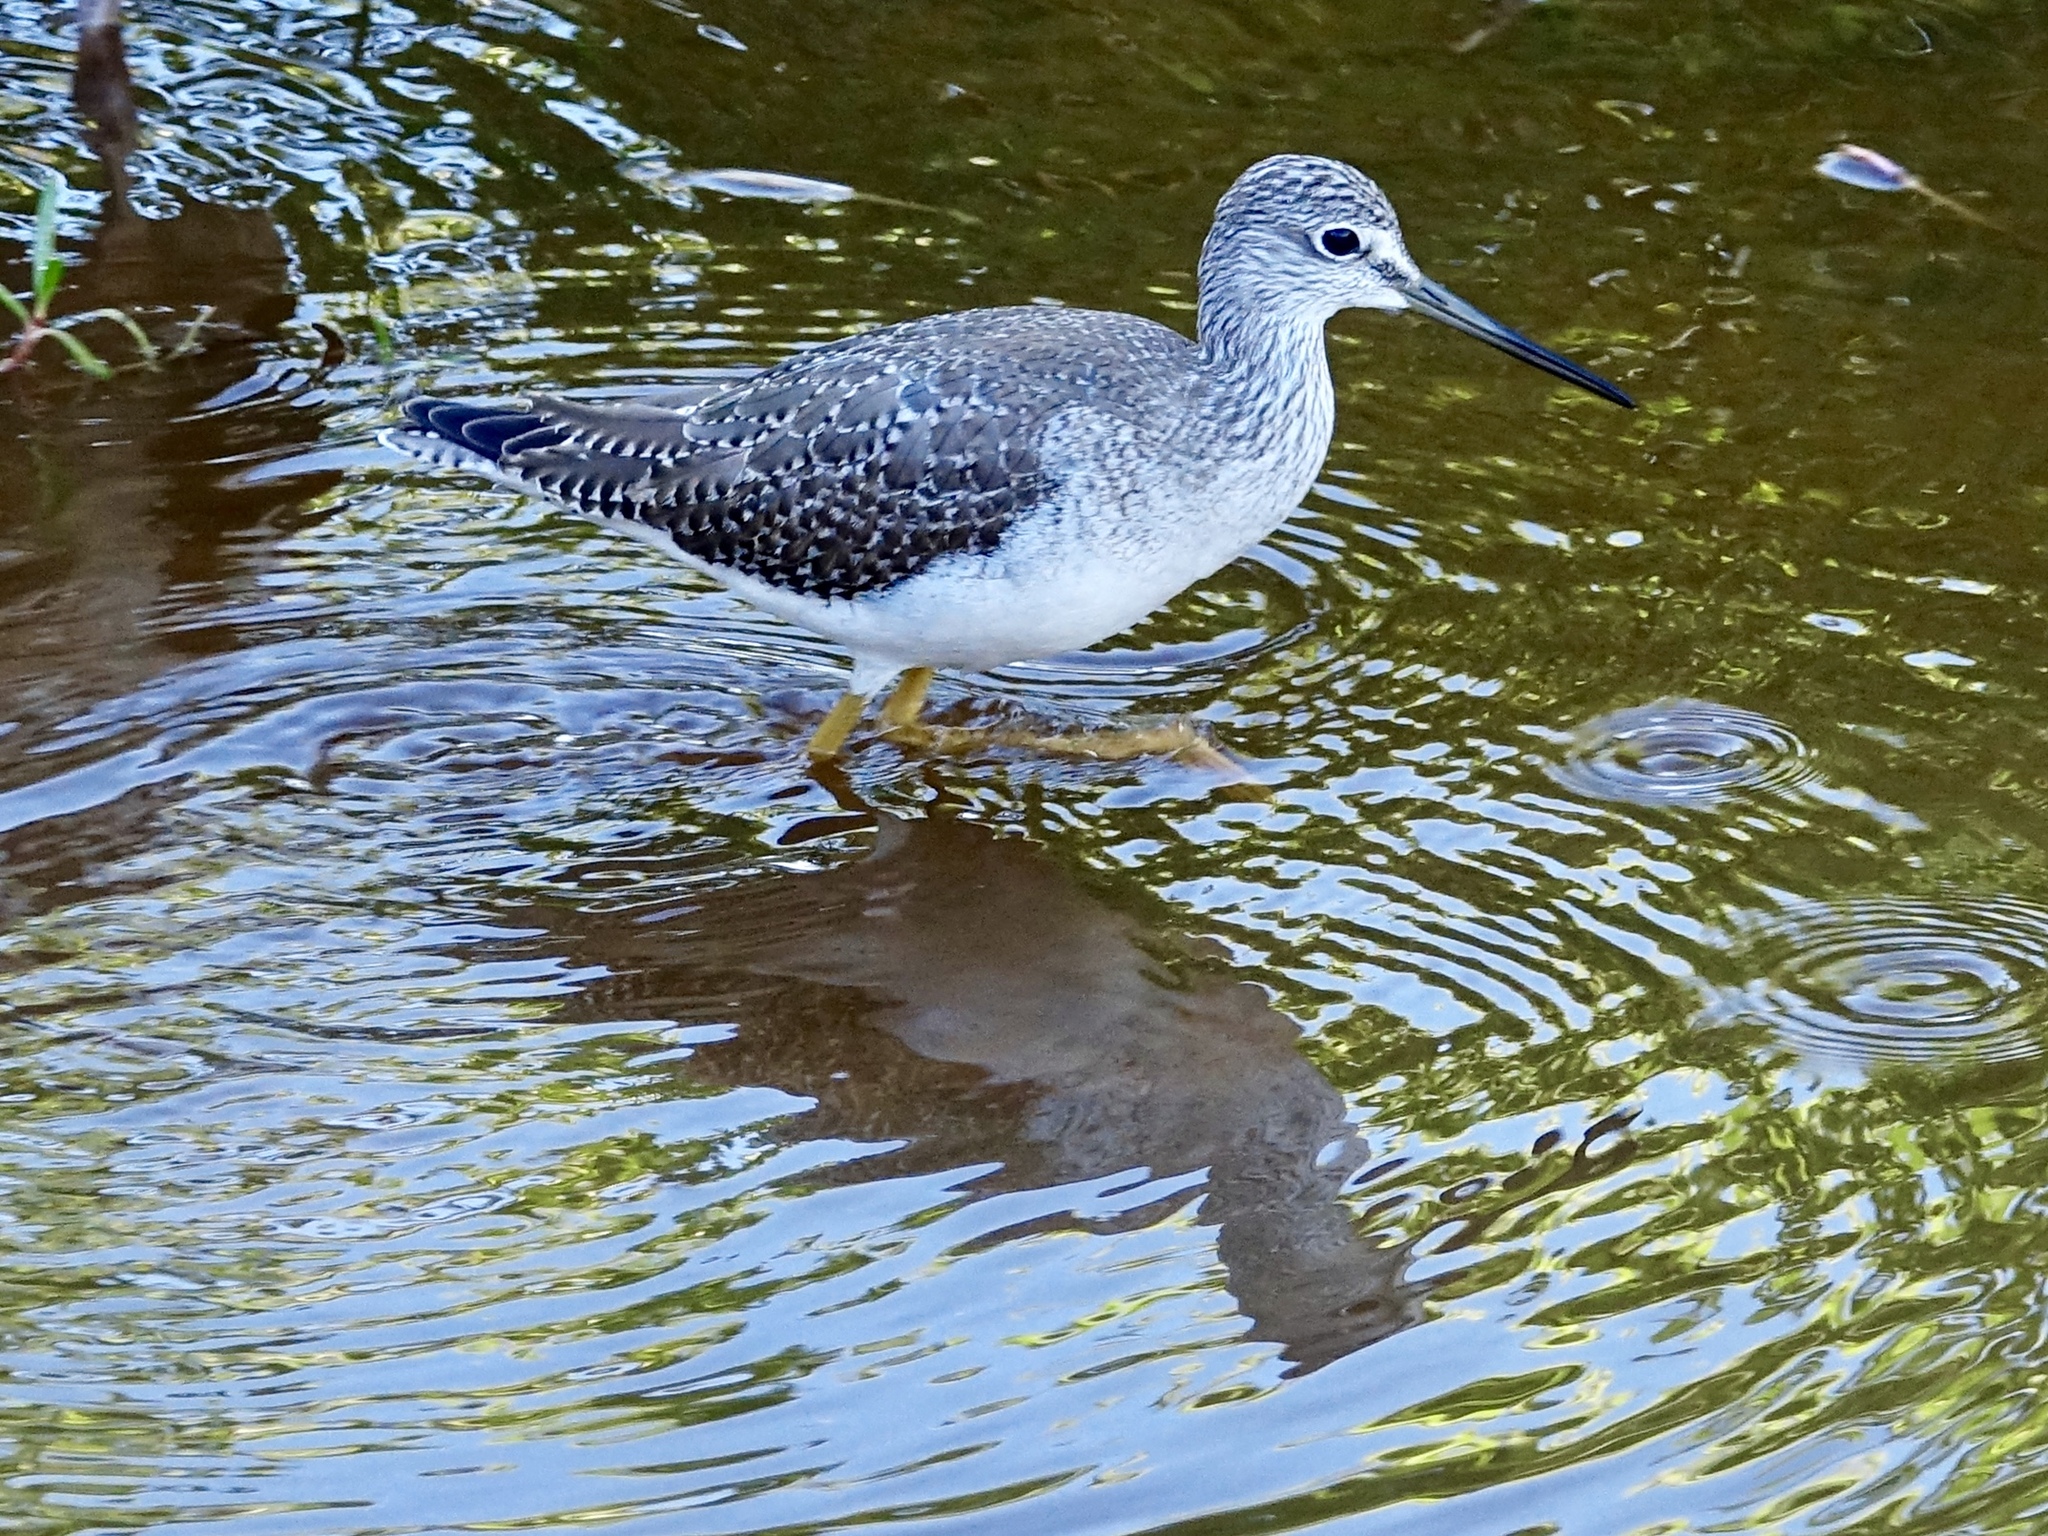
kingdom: Animalia
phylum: Chordata
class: Aves
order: Charadriiformes
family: Scolopacidae
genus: Tringa
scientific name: Tringa melanoleuca
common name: Greater yellowlegs
